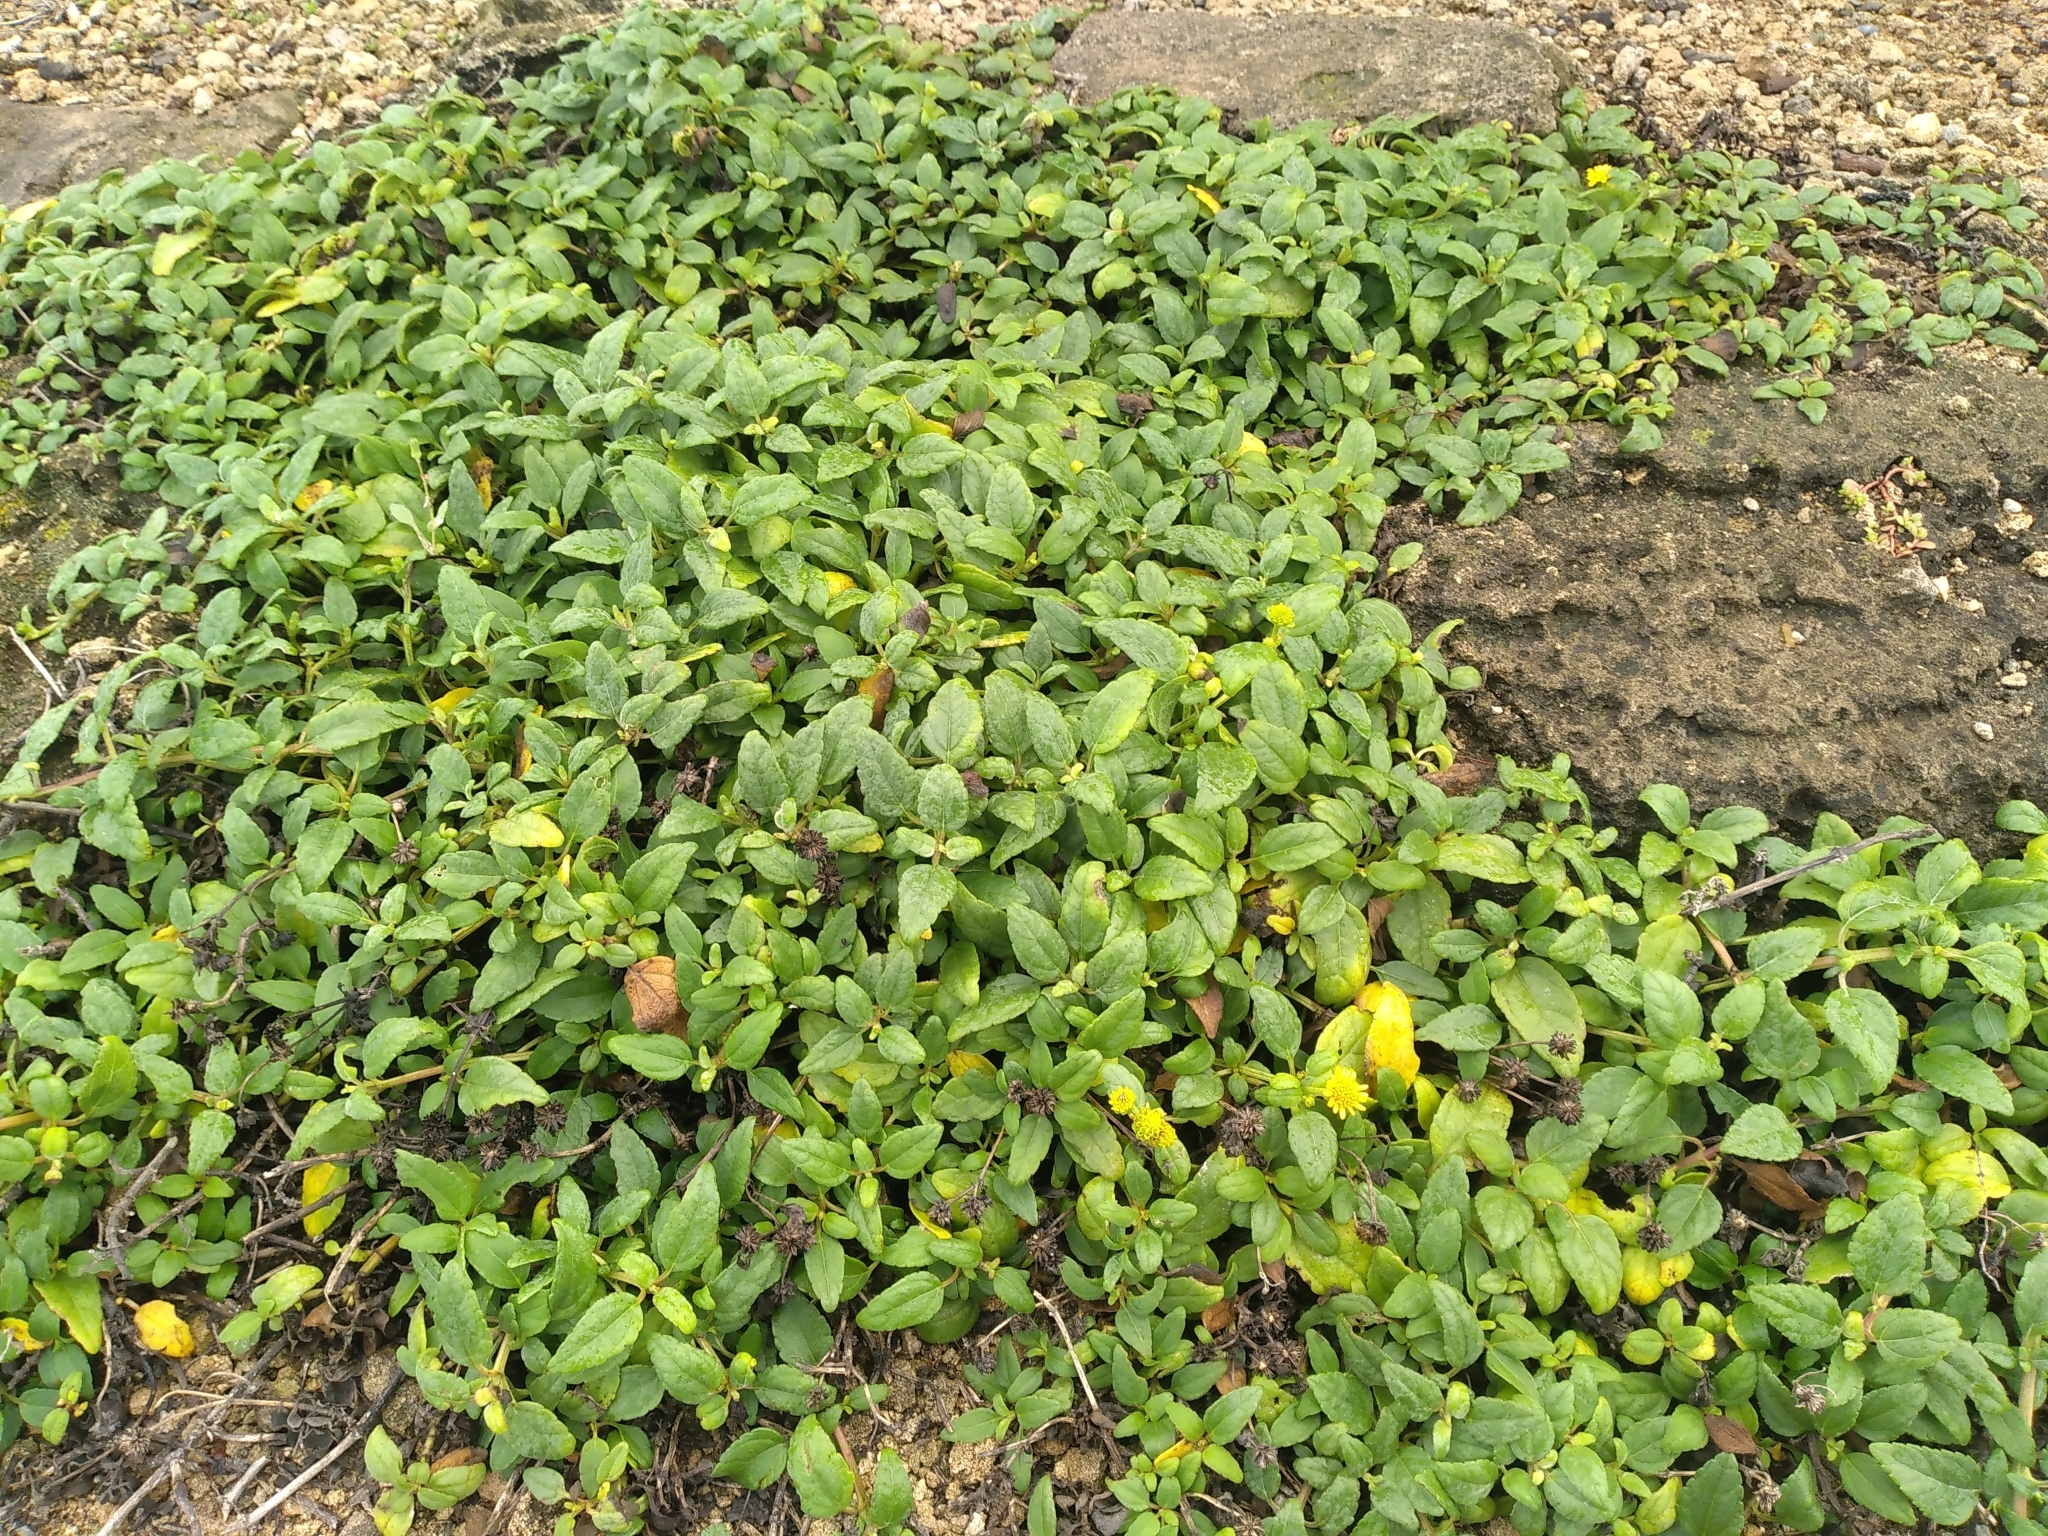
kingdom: Plantae
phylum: Tracheophyta
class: Magnoliopsida
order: Asterales
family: Asteraceae
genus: Wollastonia
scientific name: Wollastonia uniflora
